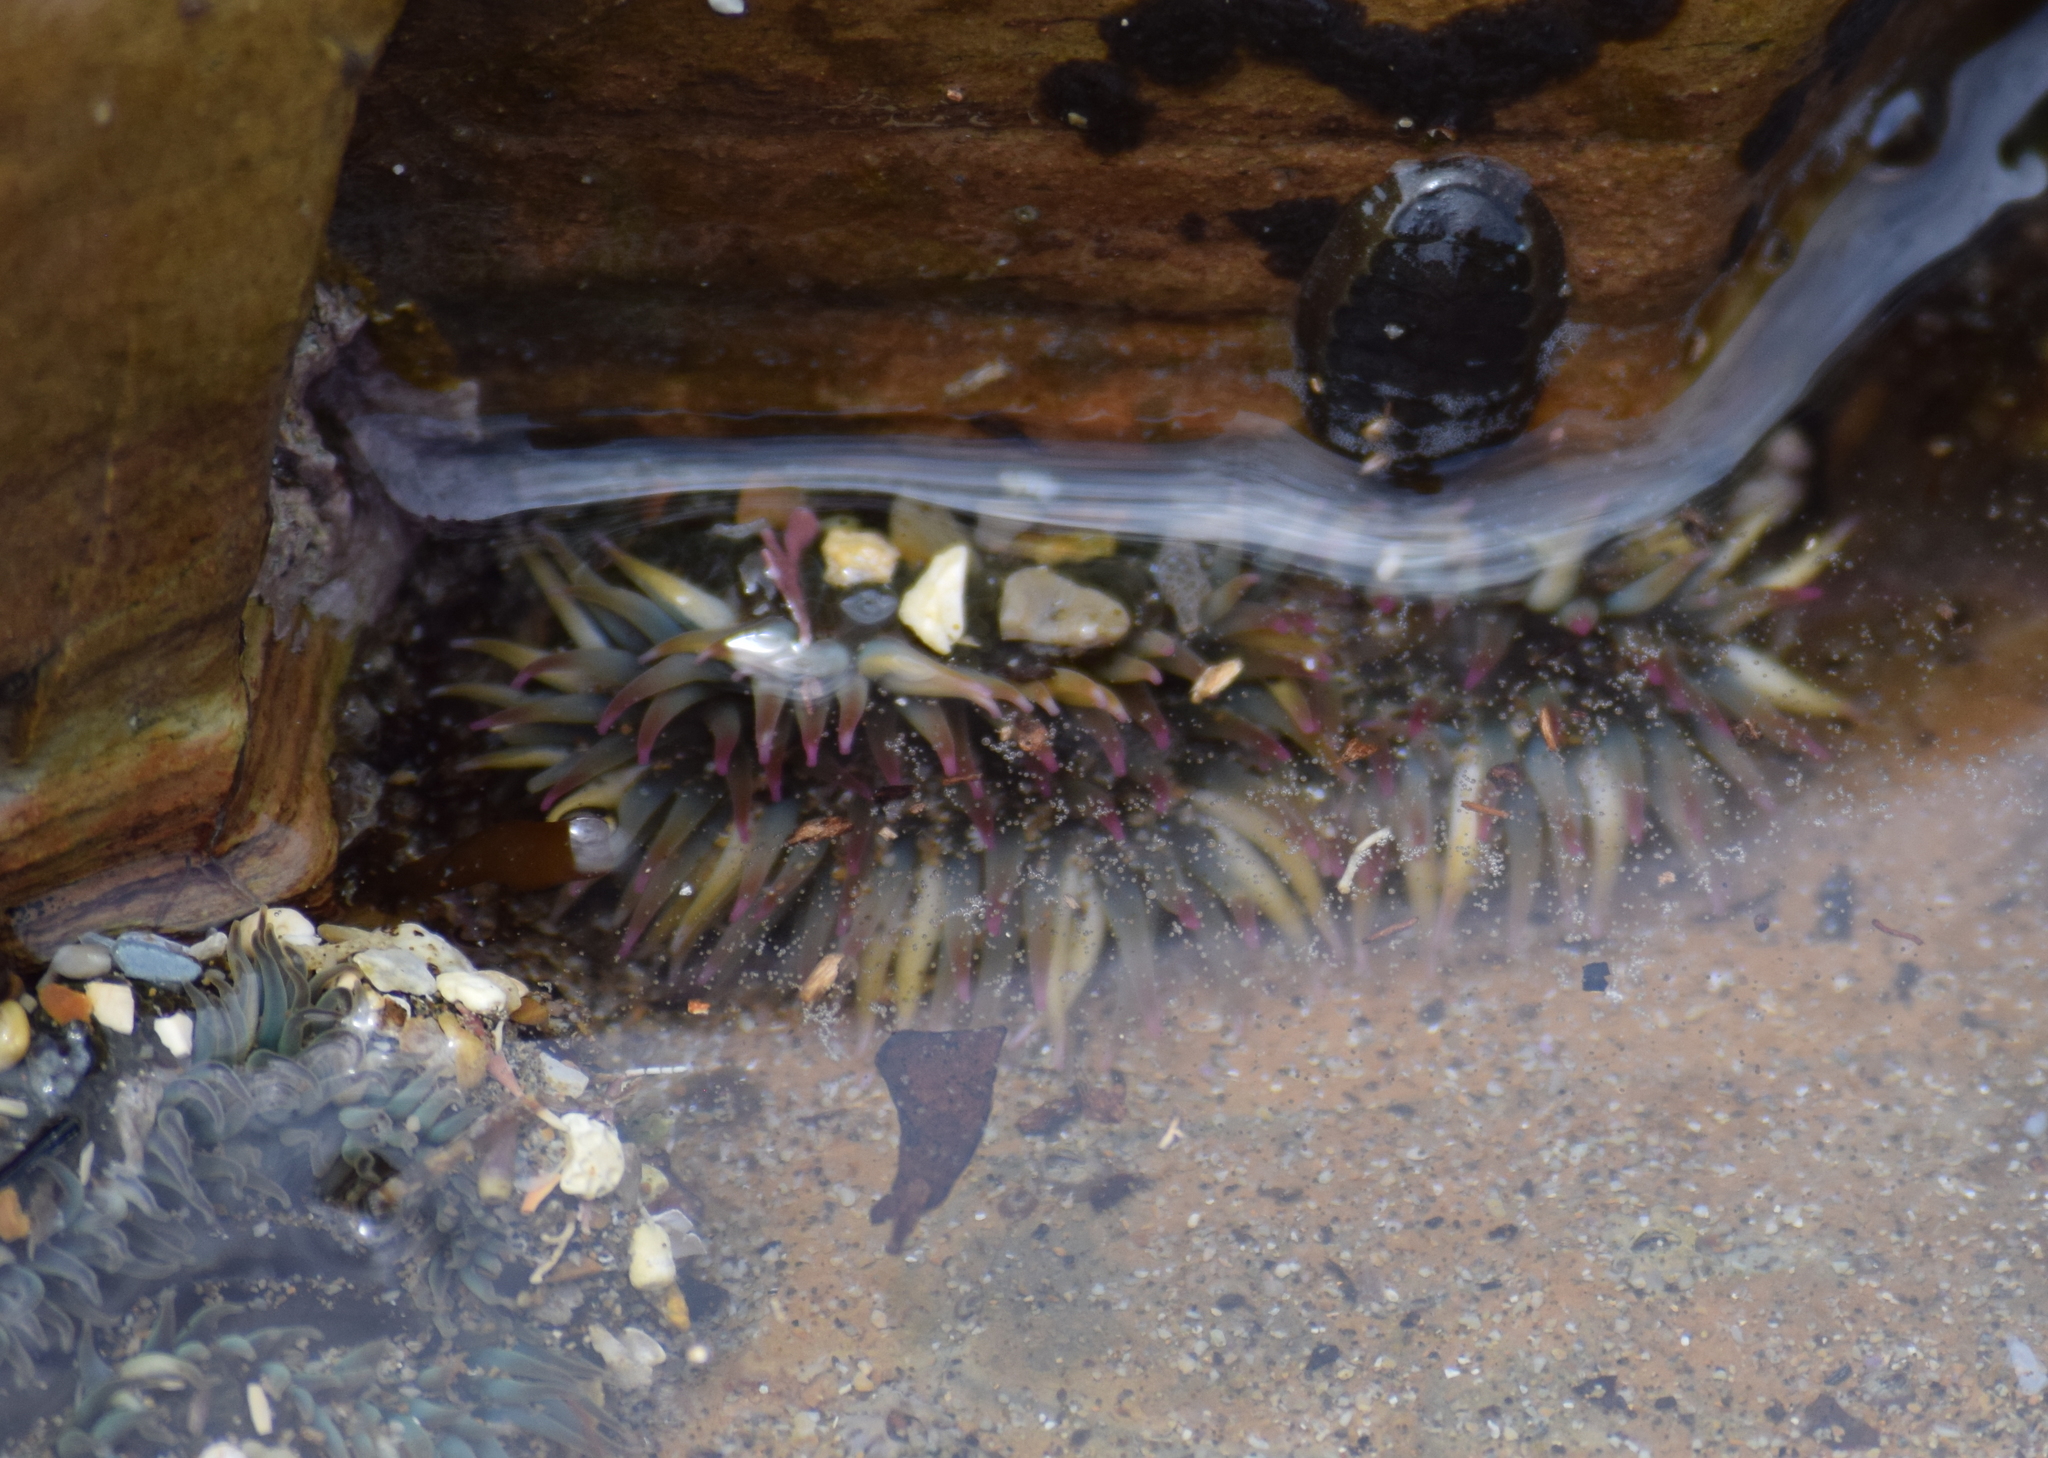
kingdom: Animalia
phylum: Cnidaria
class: Anthozoa
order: Actiniaria
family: Actiniidae
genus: Anthopleura
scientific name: Anthopleura elegantissima
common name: Clonal anemone
